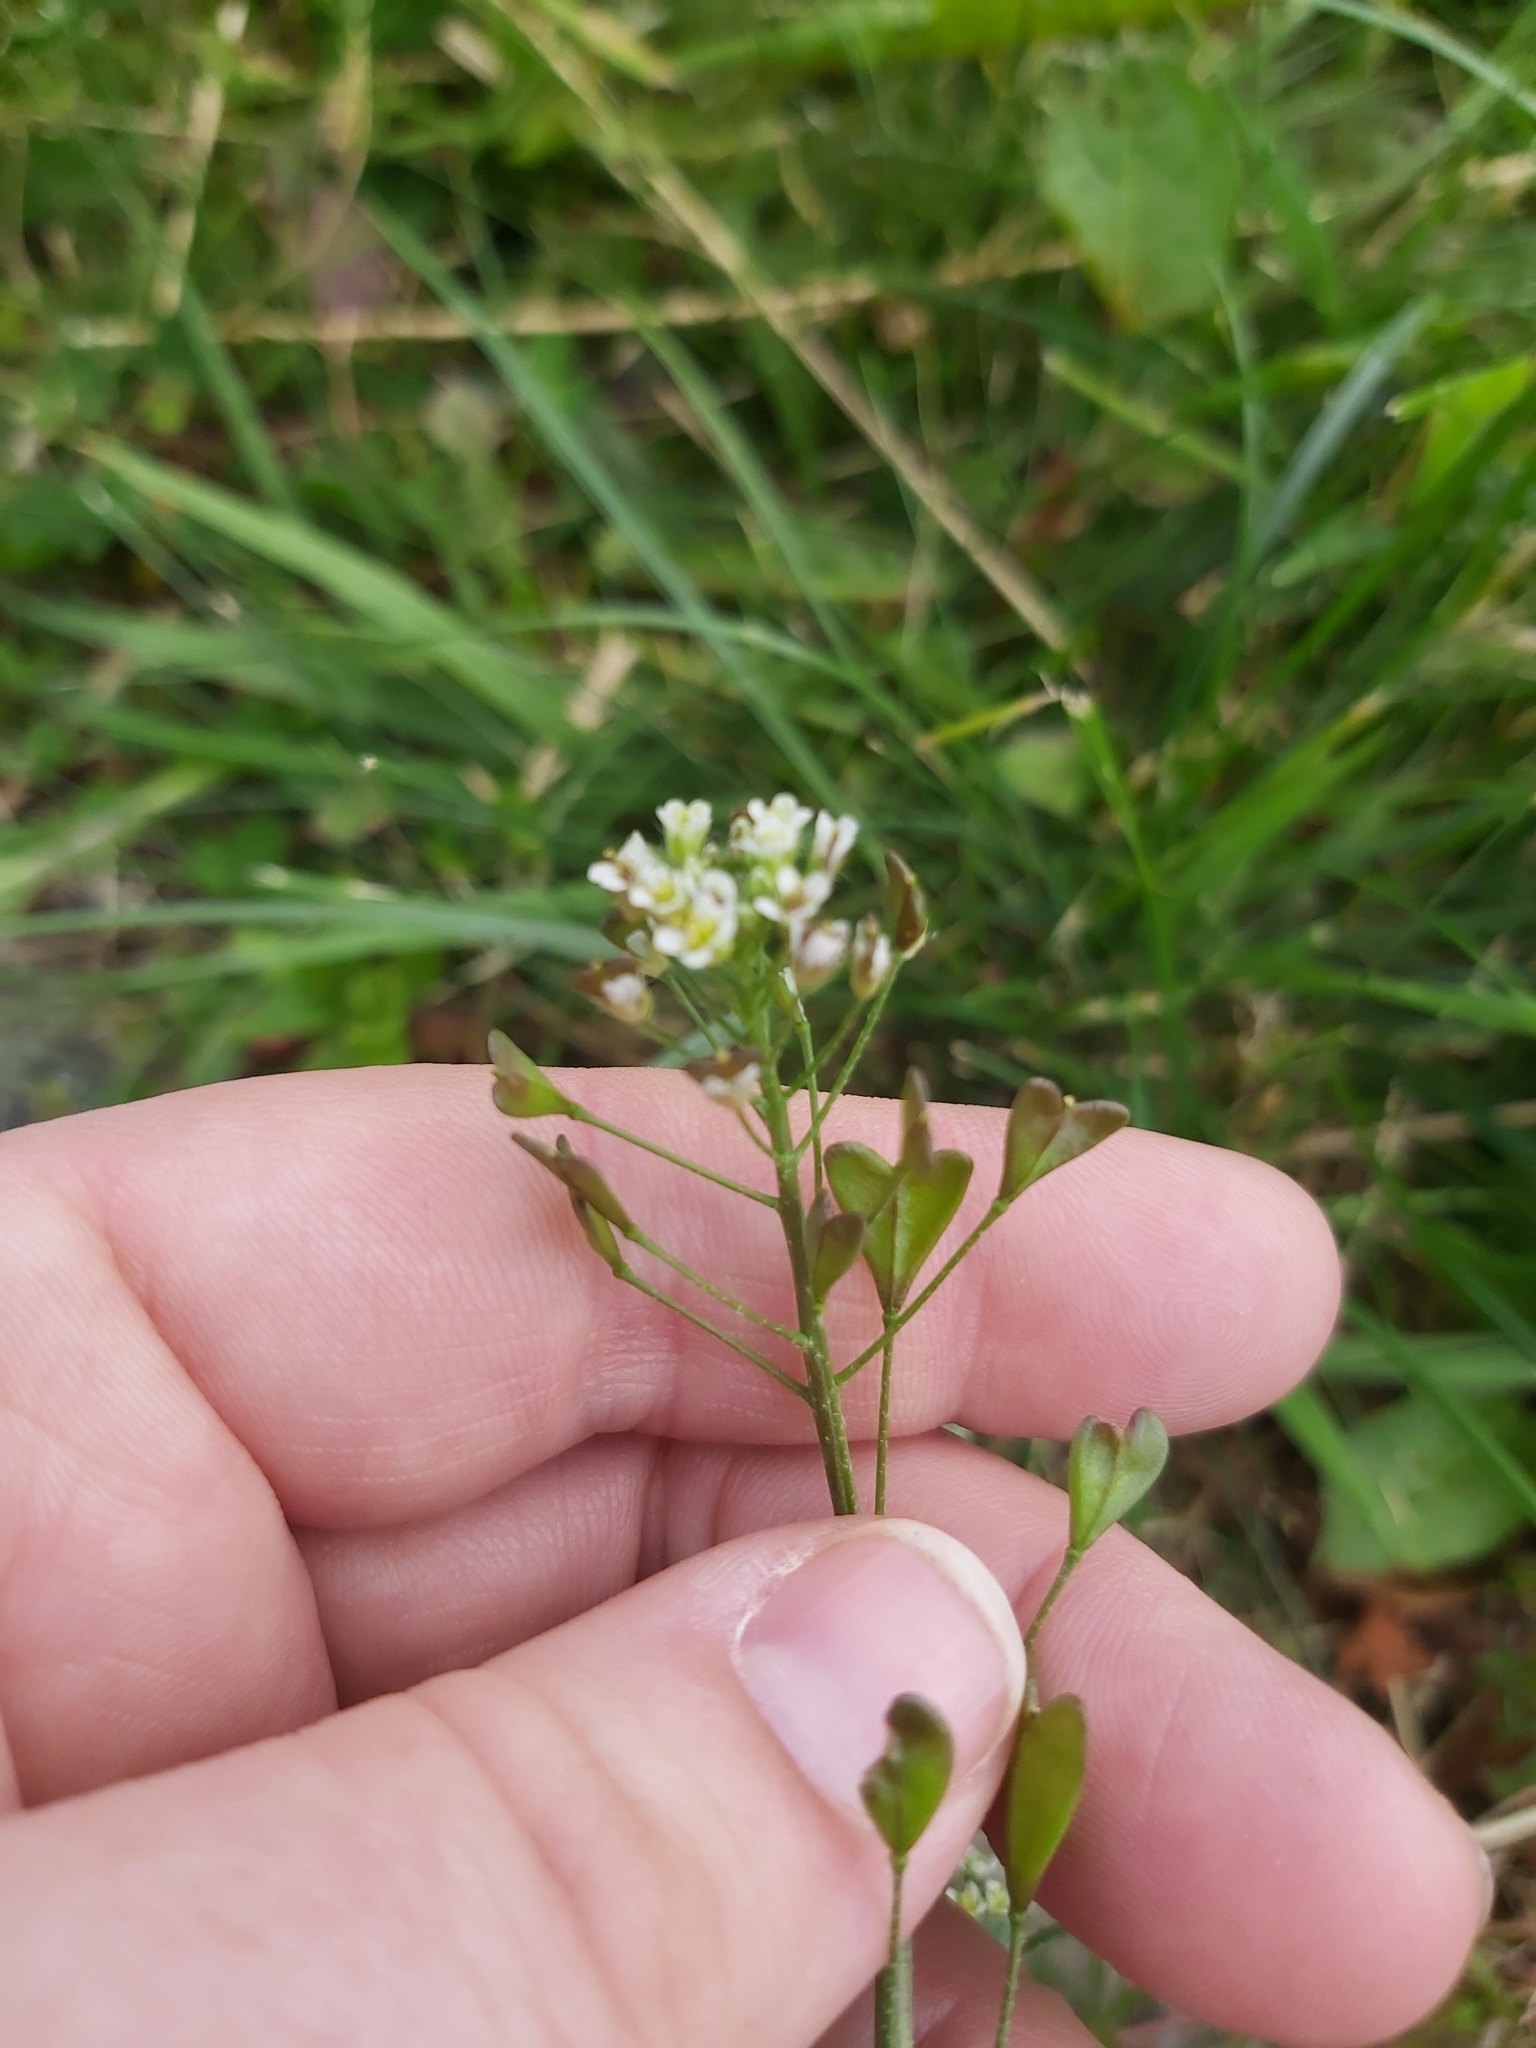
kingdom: Plantae
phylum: Tracheophyta
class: Magnoliopsida
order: Brassicales
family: Brassicaceae
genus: Capsella
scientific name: Capsella bursa-pastoris
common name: Shepherd's purse
